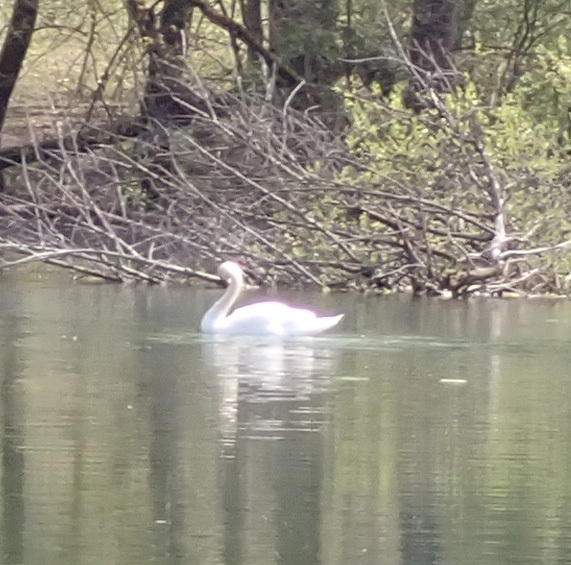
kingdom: Animalia
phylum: Chordata
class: Aves
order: Anseriformes
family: Anatidae
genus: Cygnus
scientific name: Cygnus olor
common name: Mute swan
